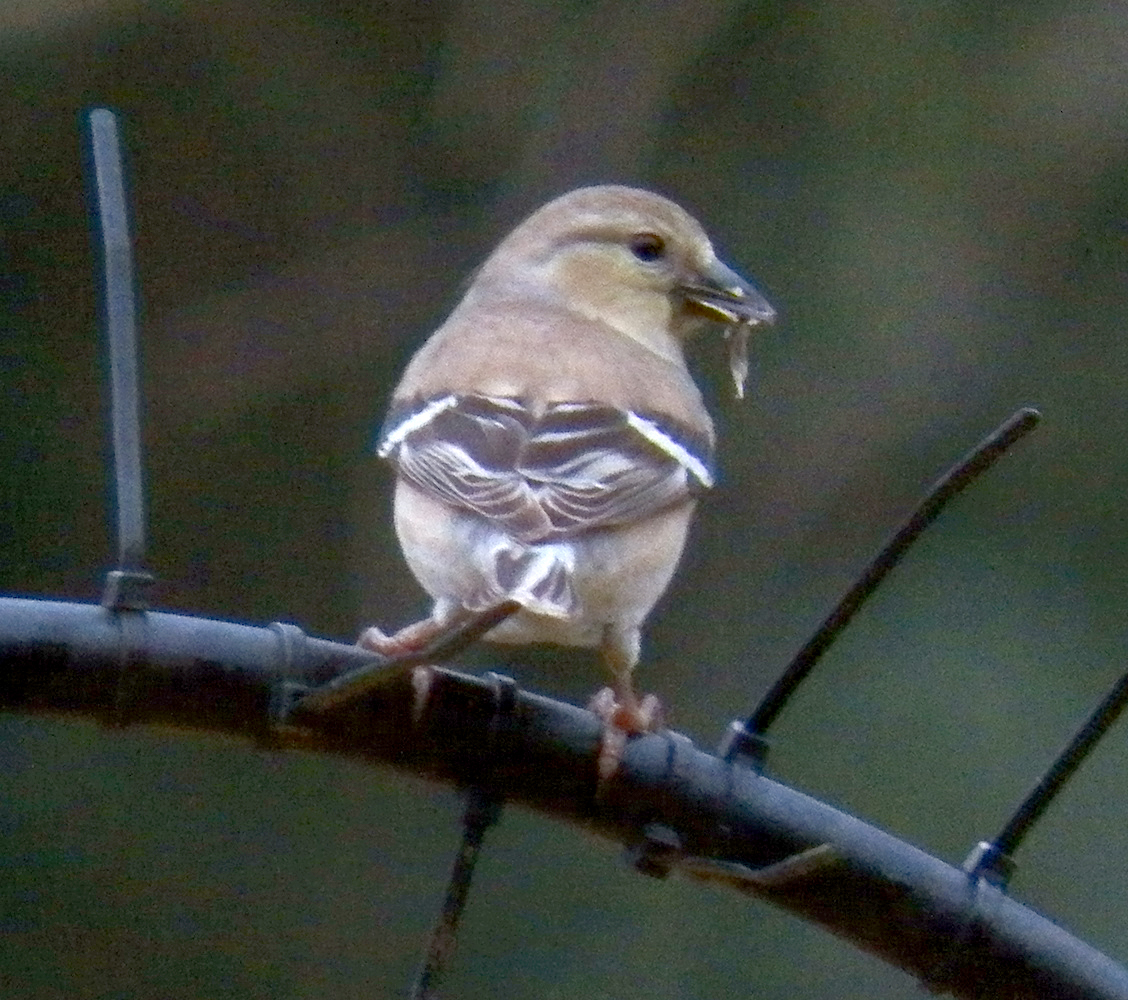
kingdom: Animalia
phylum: Chordata
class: Aves
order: Passeriformes
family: Fringillidae
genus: Spinus
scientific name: Spinus tristis
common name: American goldfinch
